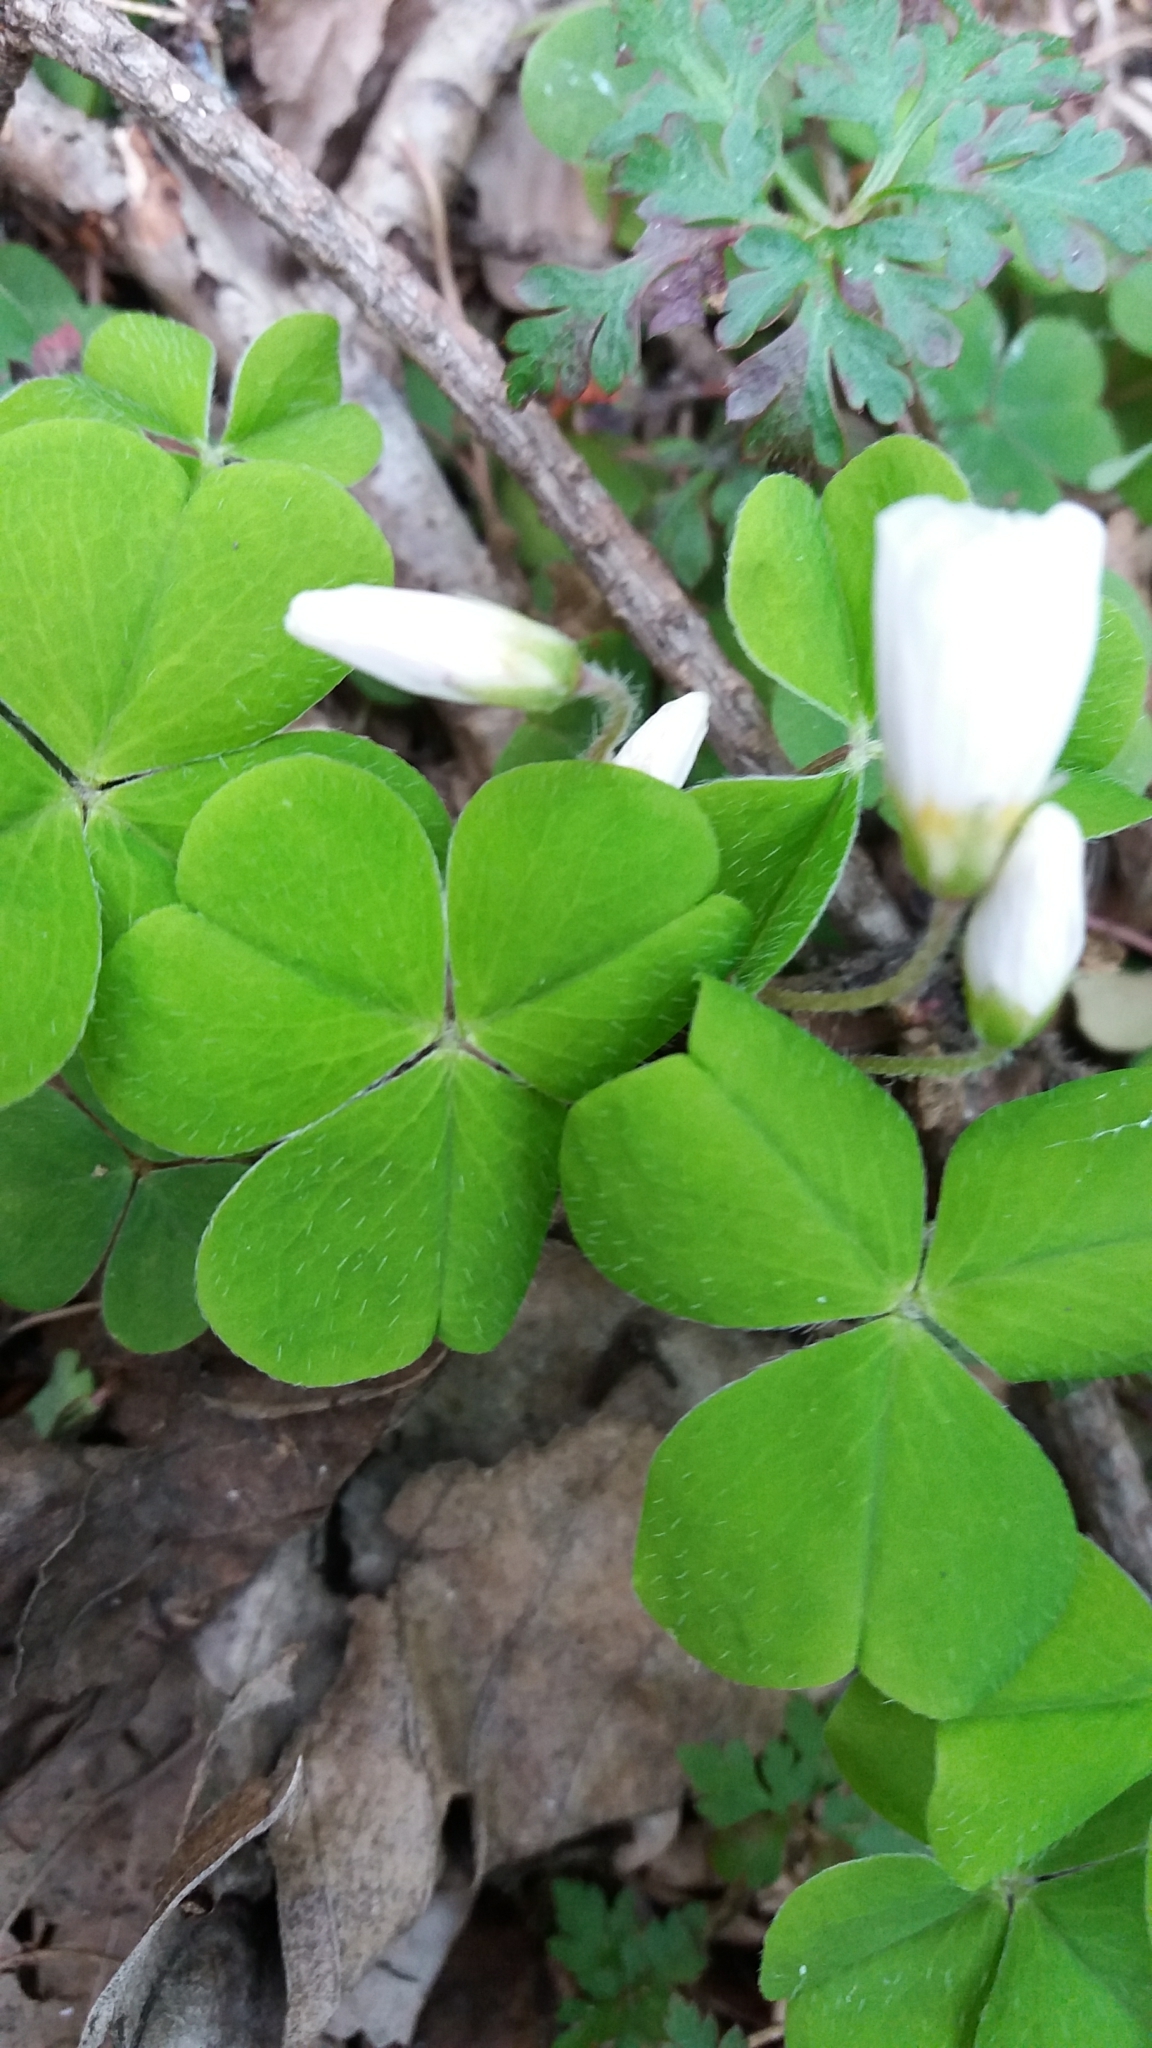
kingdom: Plantae
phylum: Tracheophyta
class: Magnoliopsida
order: Oxalidales
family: Oxalidaceae
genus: Oxalis
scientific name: Oxalis acetosella
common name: Wood-sorrel
